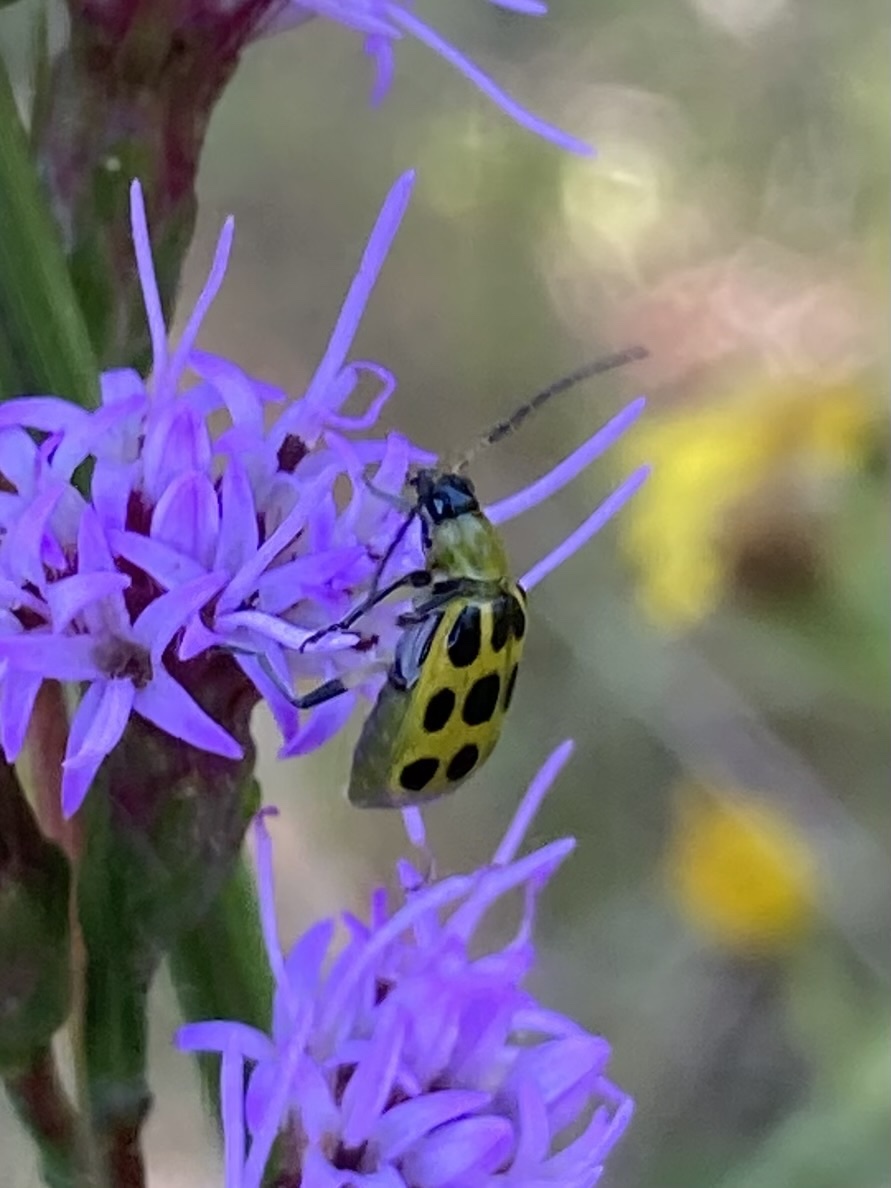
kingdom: Animalia
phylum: Arthropoda
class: Insecta
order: Coleoptera
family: Chrysomelidae
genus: Diabrotica
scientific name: Diabrotica undecimpunctata
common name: Spotted cucumber beetle
